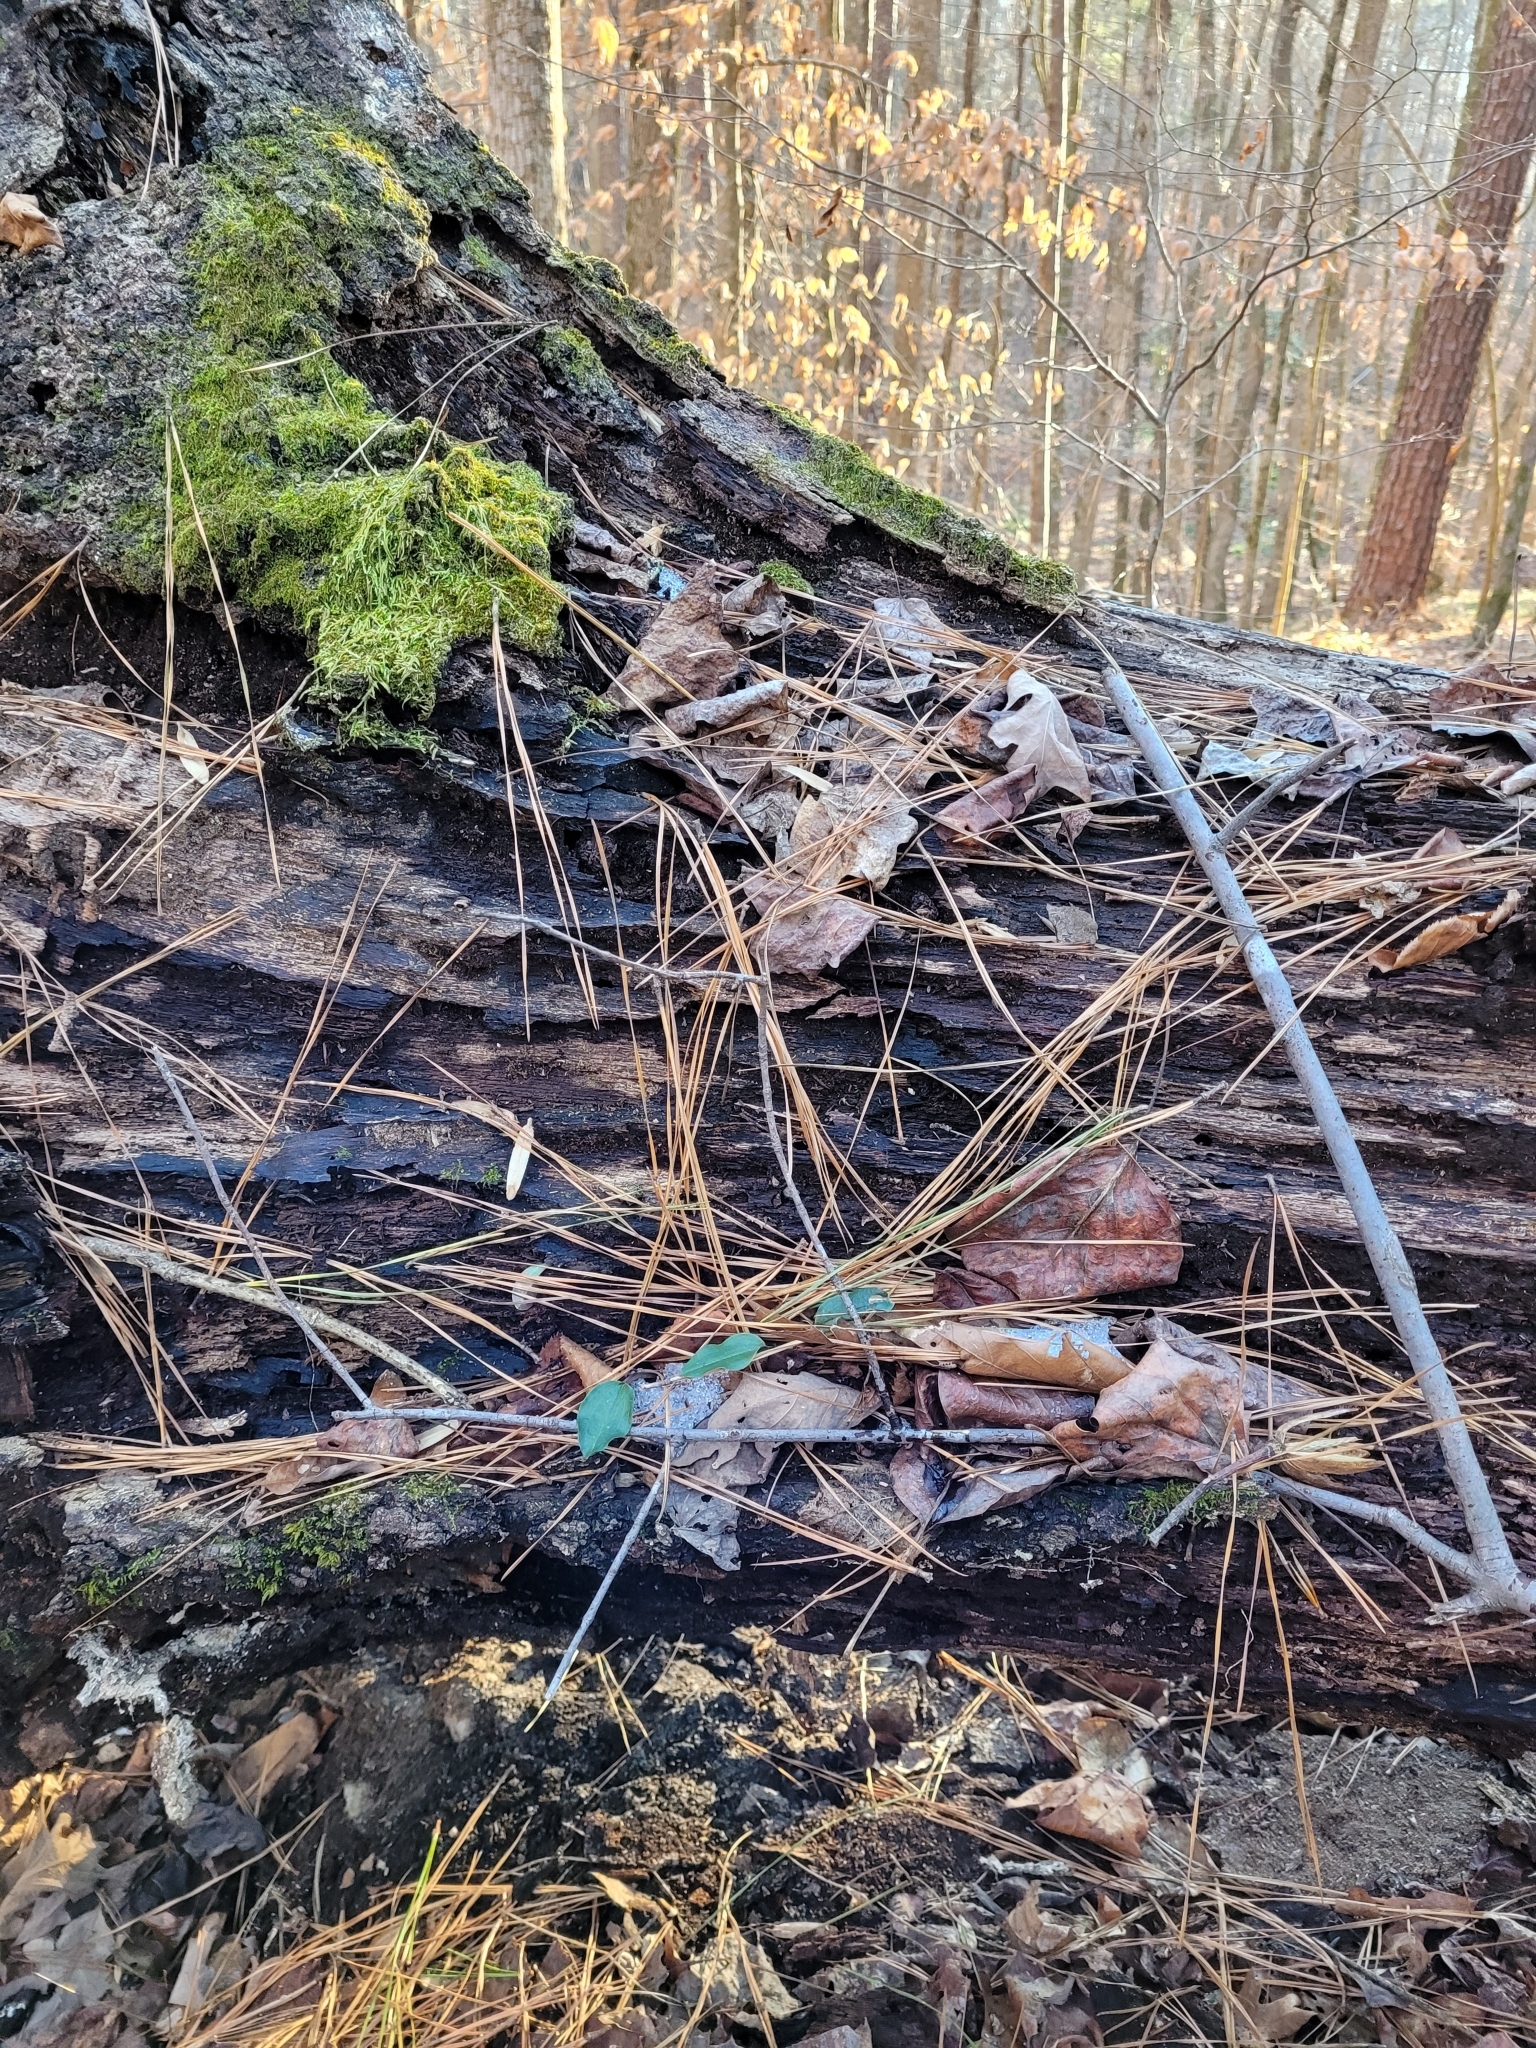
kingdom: Plantae
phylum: Tracheophyta
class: Liliopsida
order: Asparagales
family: Orchidaceae
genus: Tipularia
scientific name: Tipularia discolor
